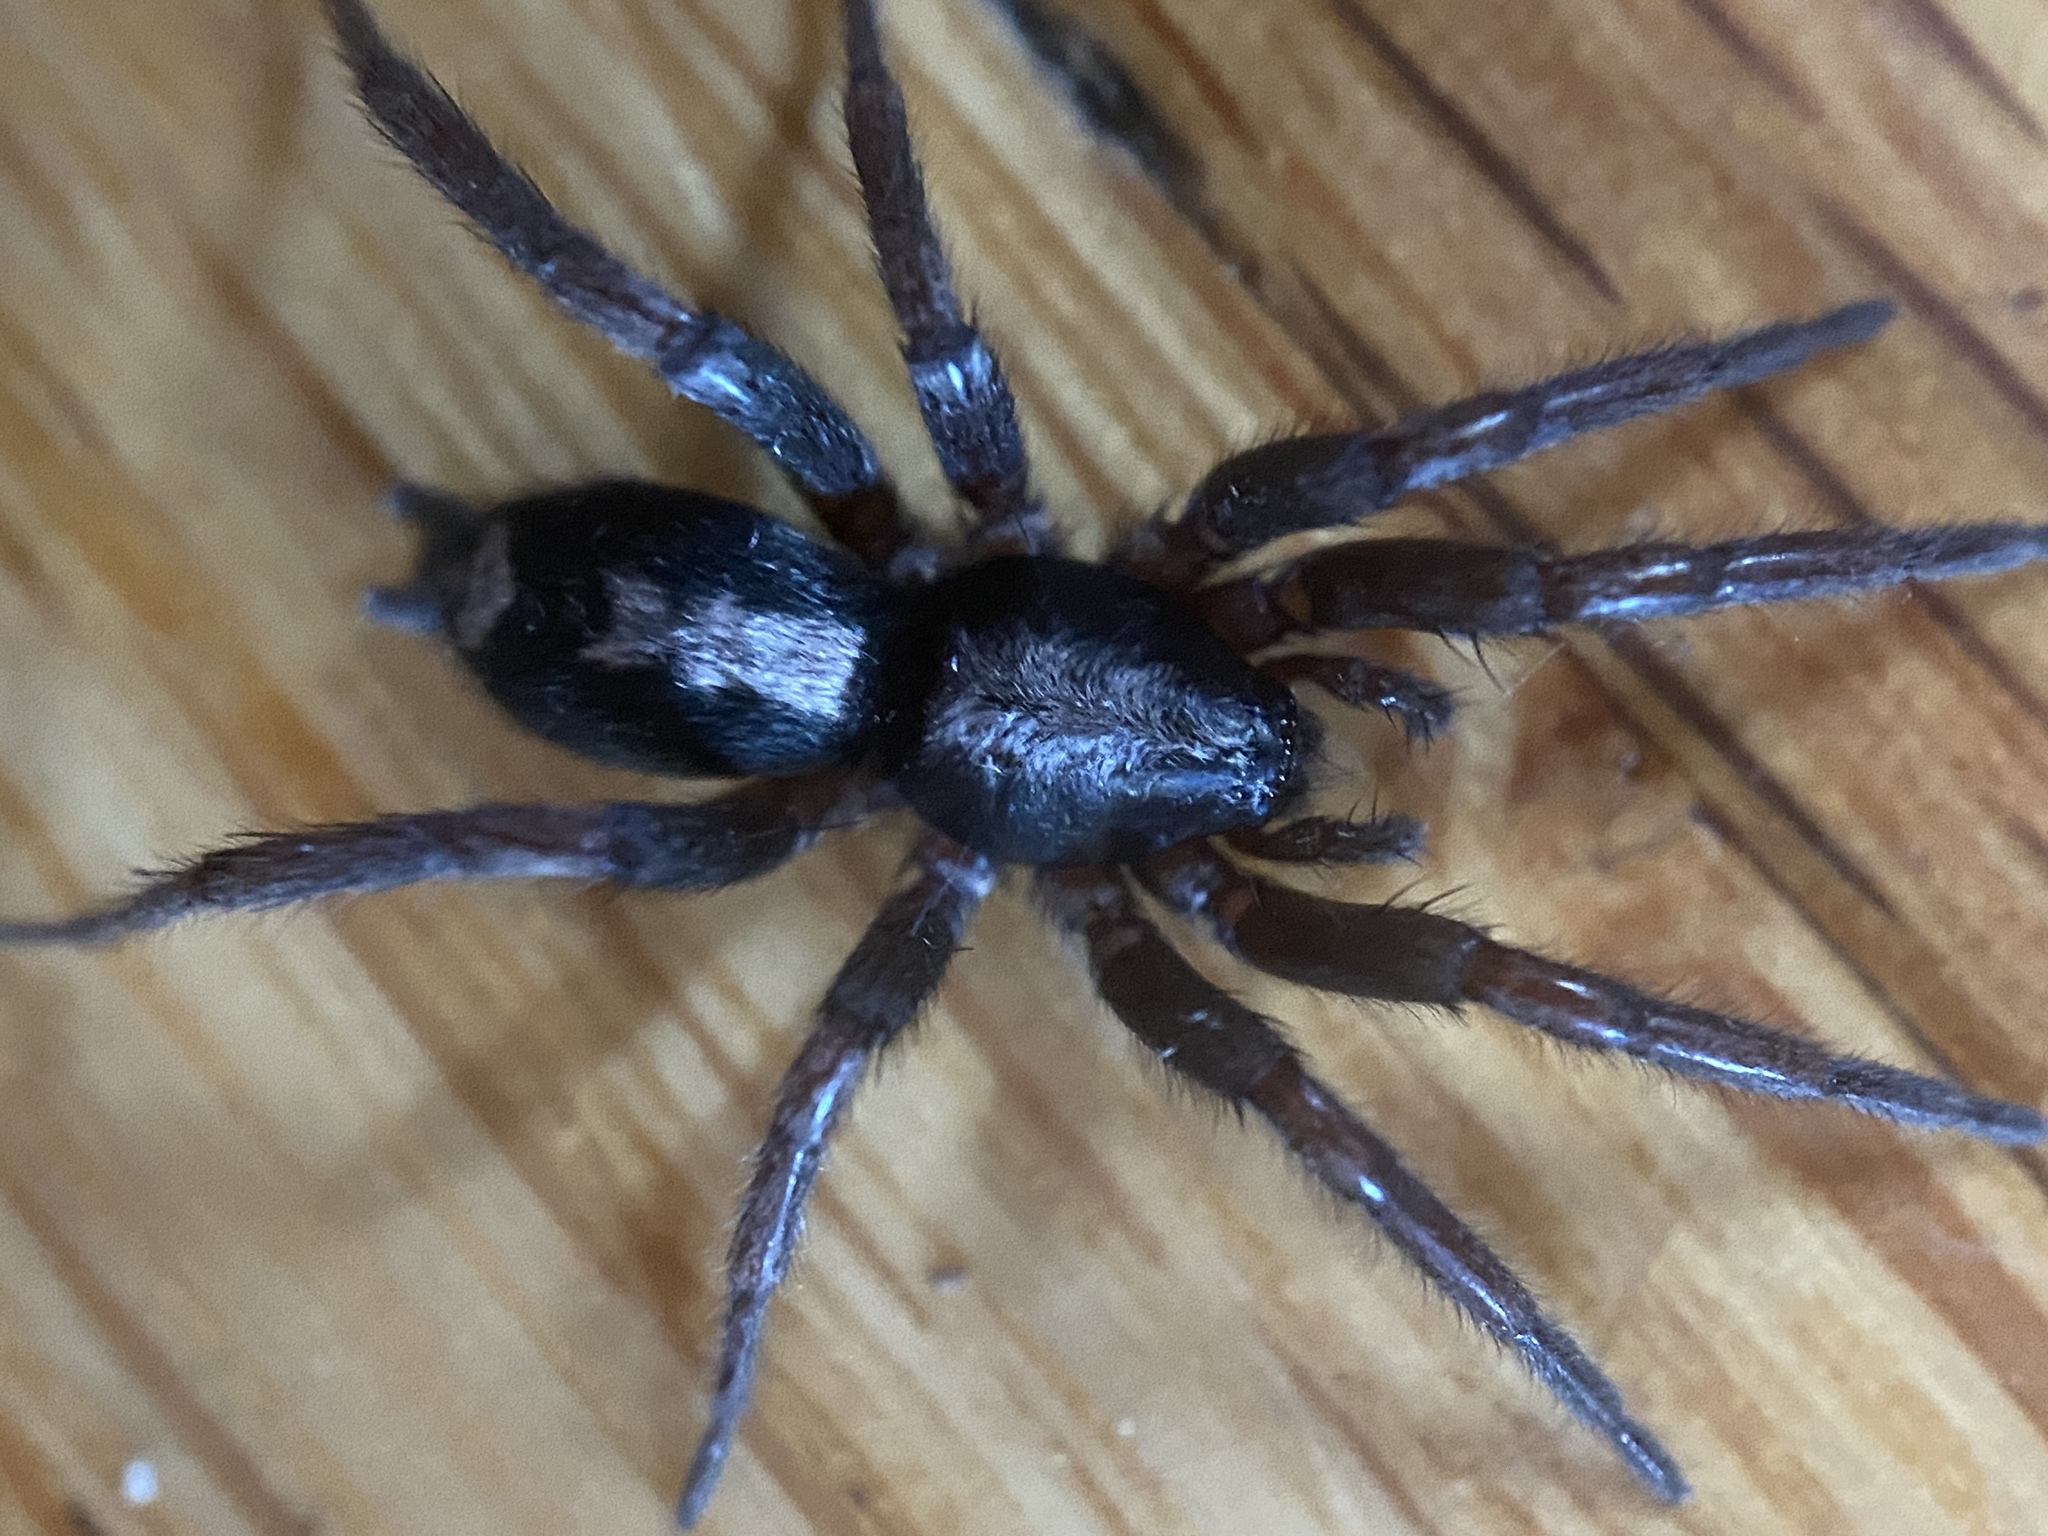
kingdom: Animalia
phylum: Arthropoda
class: Arachnida
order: Araneae
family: Gnaphosidae
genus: Herpyllus
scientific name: Herpyllus ecclesiasticus
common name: Eastern parson spider
